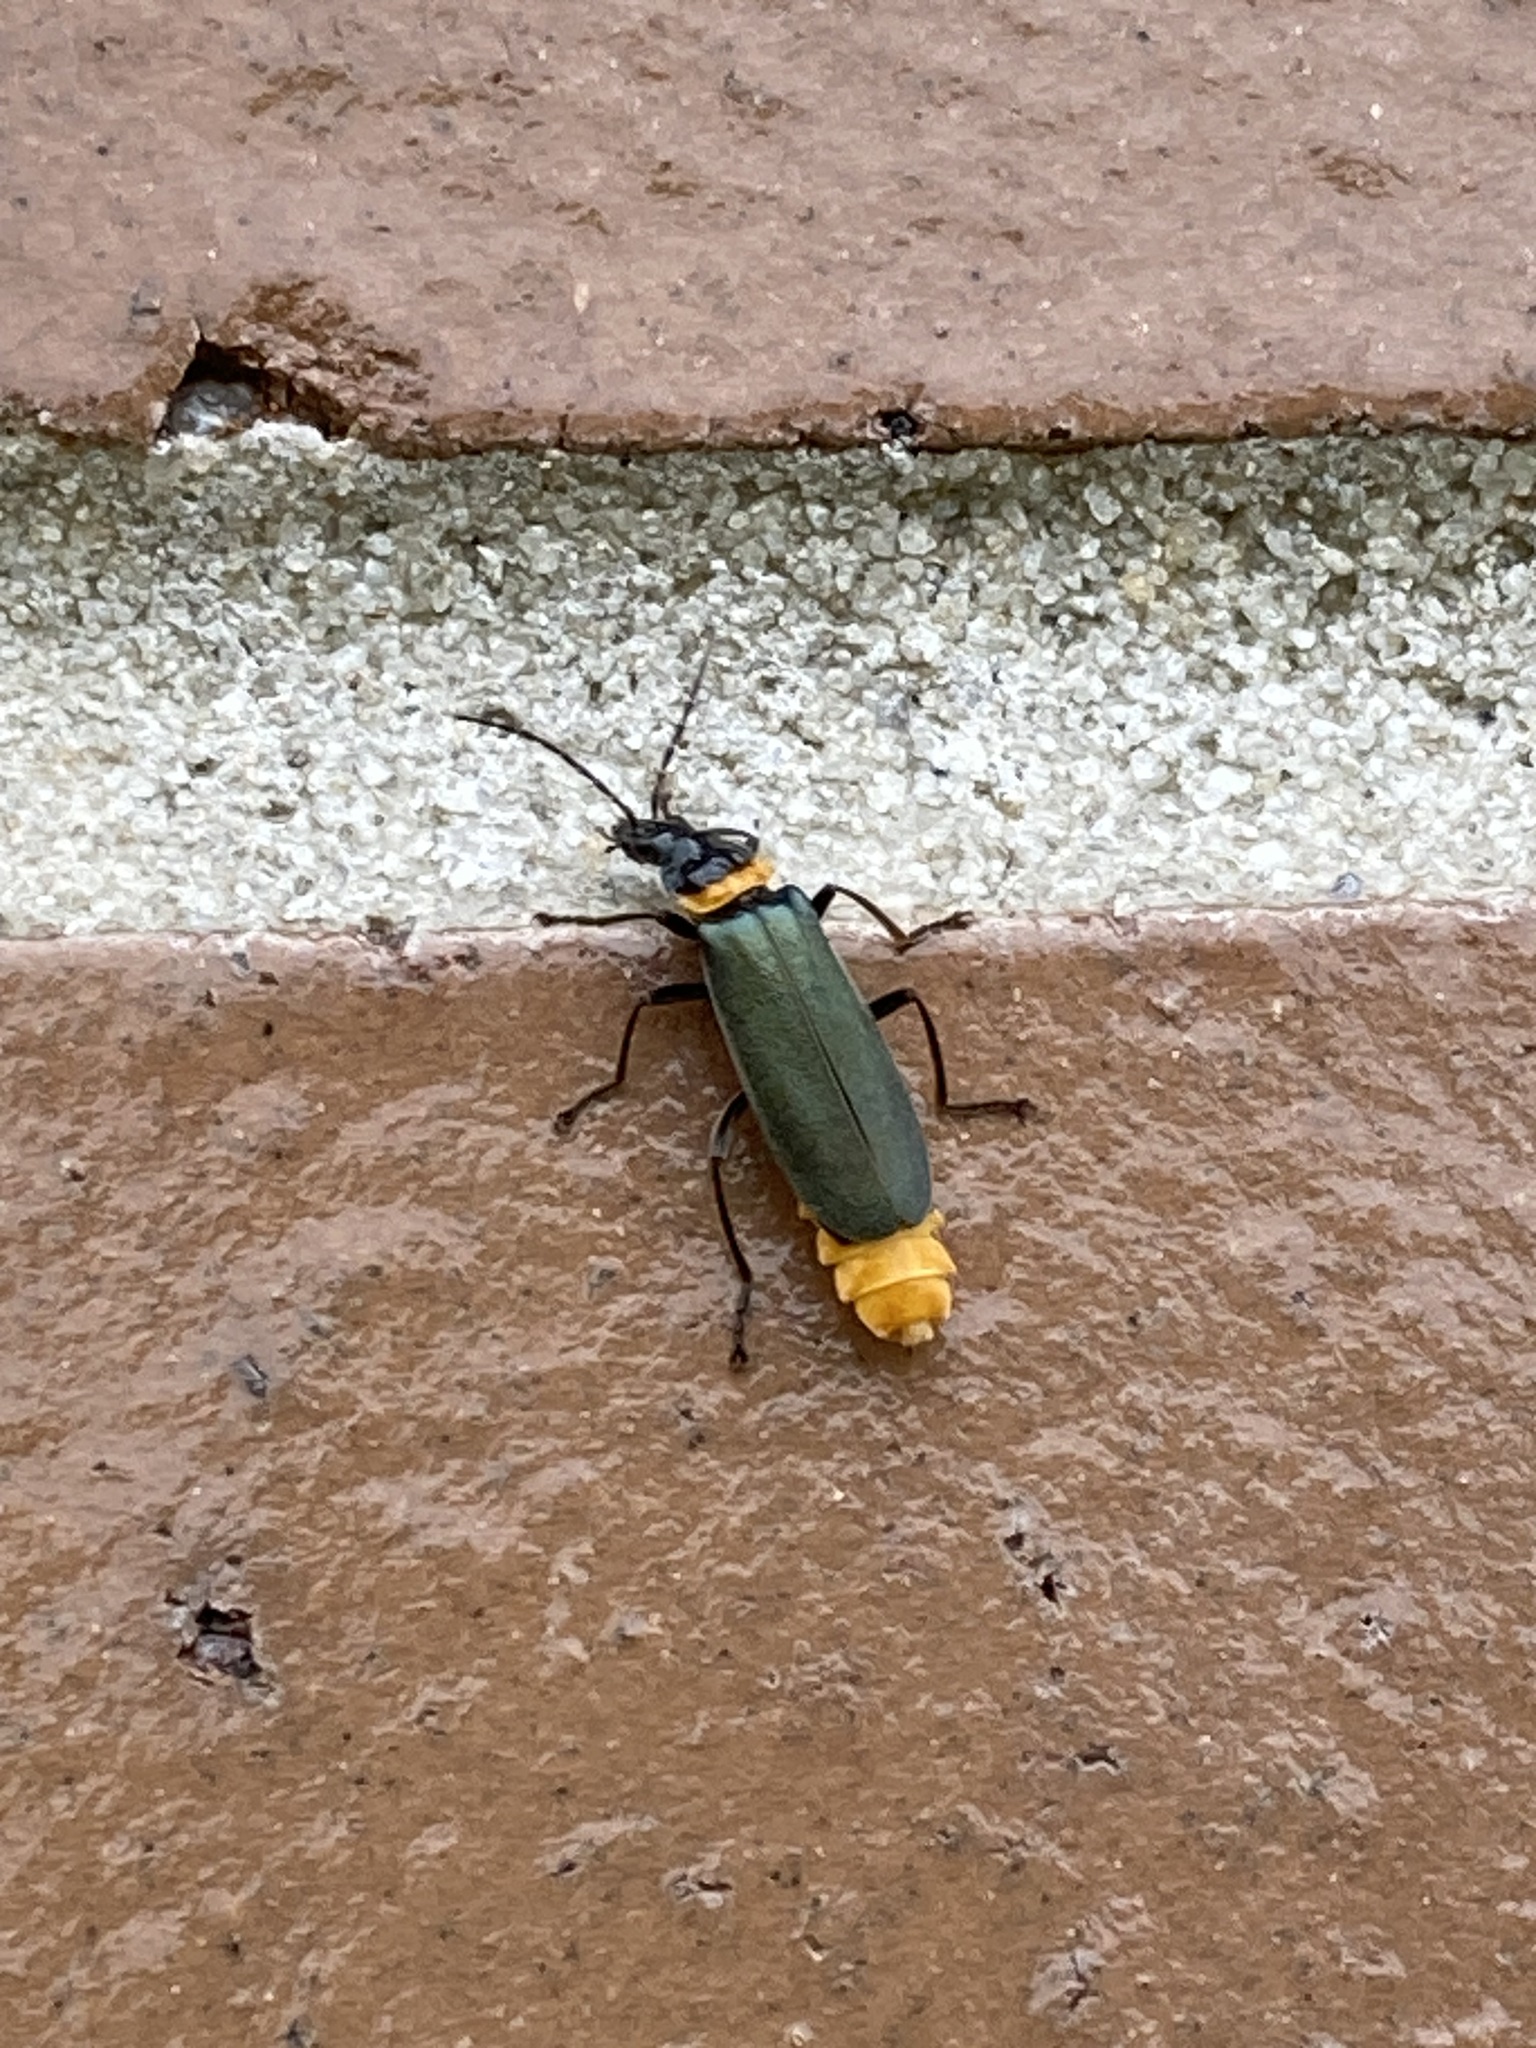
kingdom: Animalia
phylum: Arthropoda
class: Insecta
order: Coleoptera
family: Cantharidae
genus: Chauliognathus
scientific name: Chauliognathus
